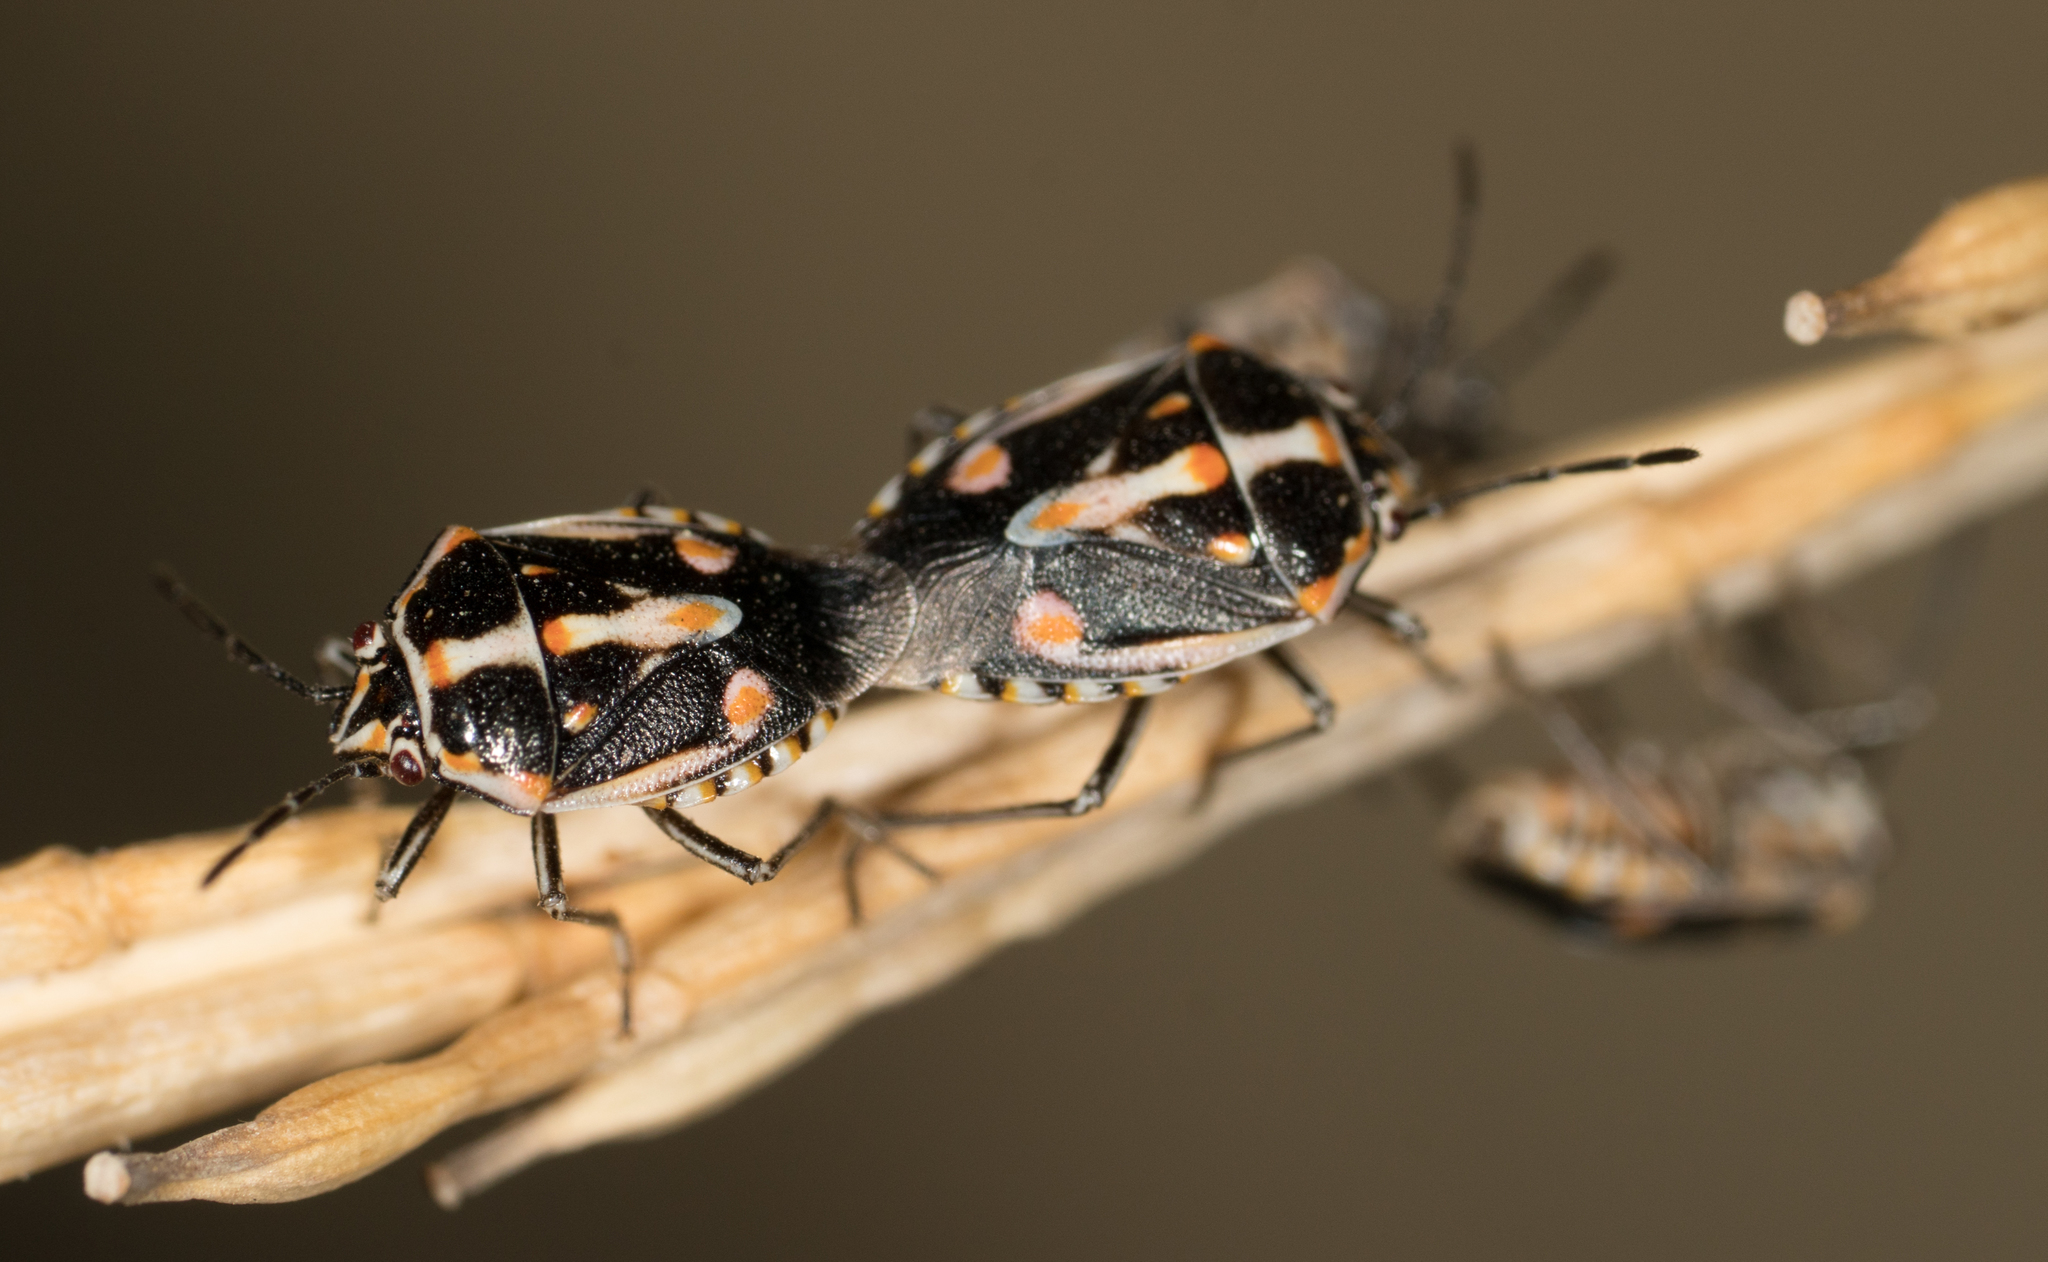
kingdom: Animalia
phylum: Arthropoda
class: Insecta
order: Hemiptera
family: Pentatomidae
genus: Bagrada
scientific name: Bagrada hilaris
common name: Bagrada bug
